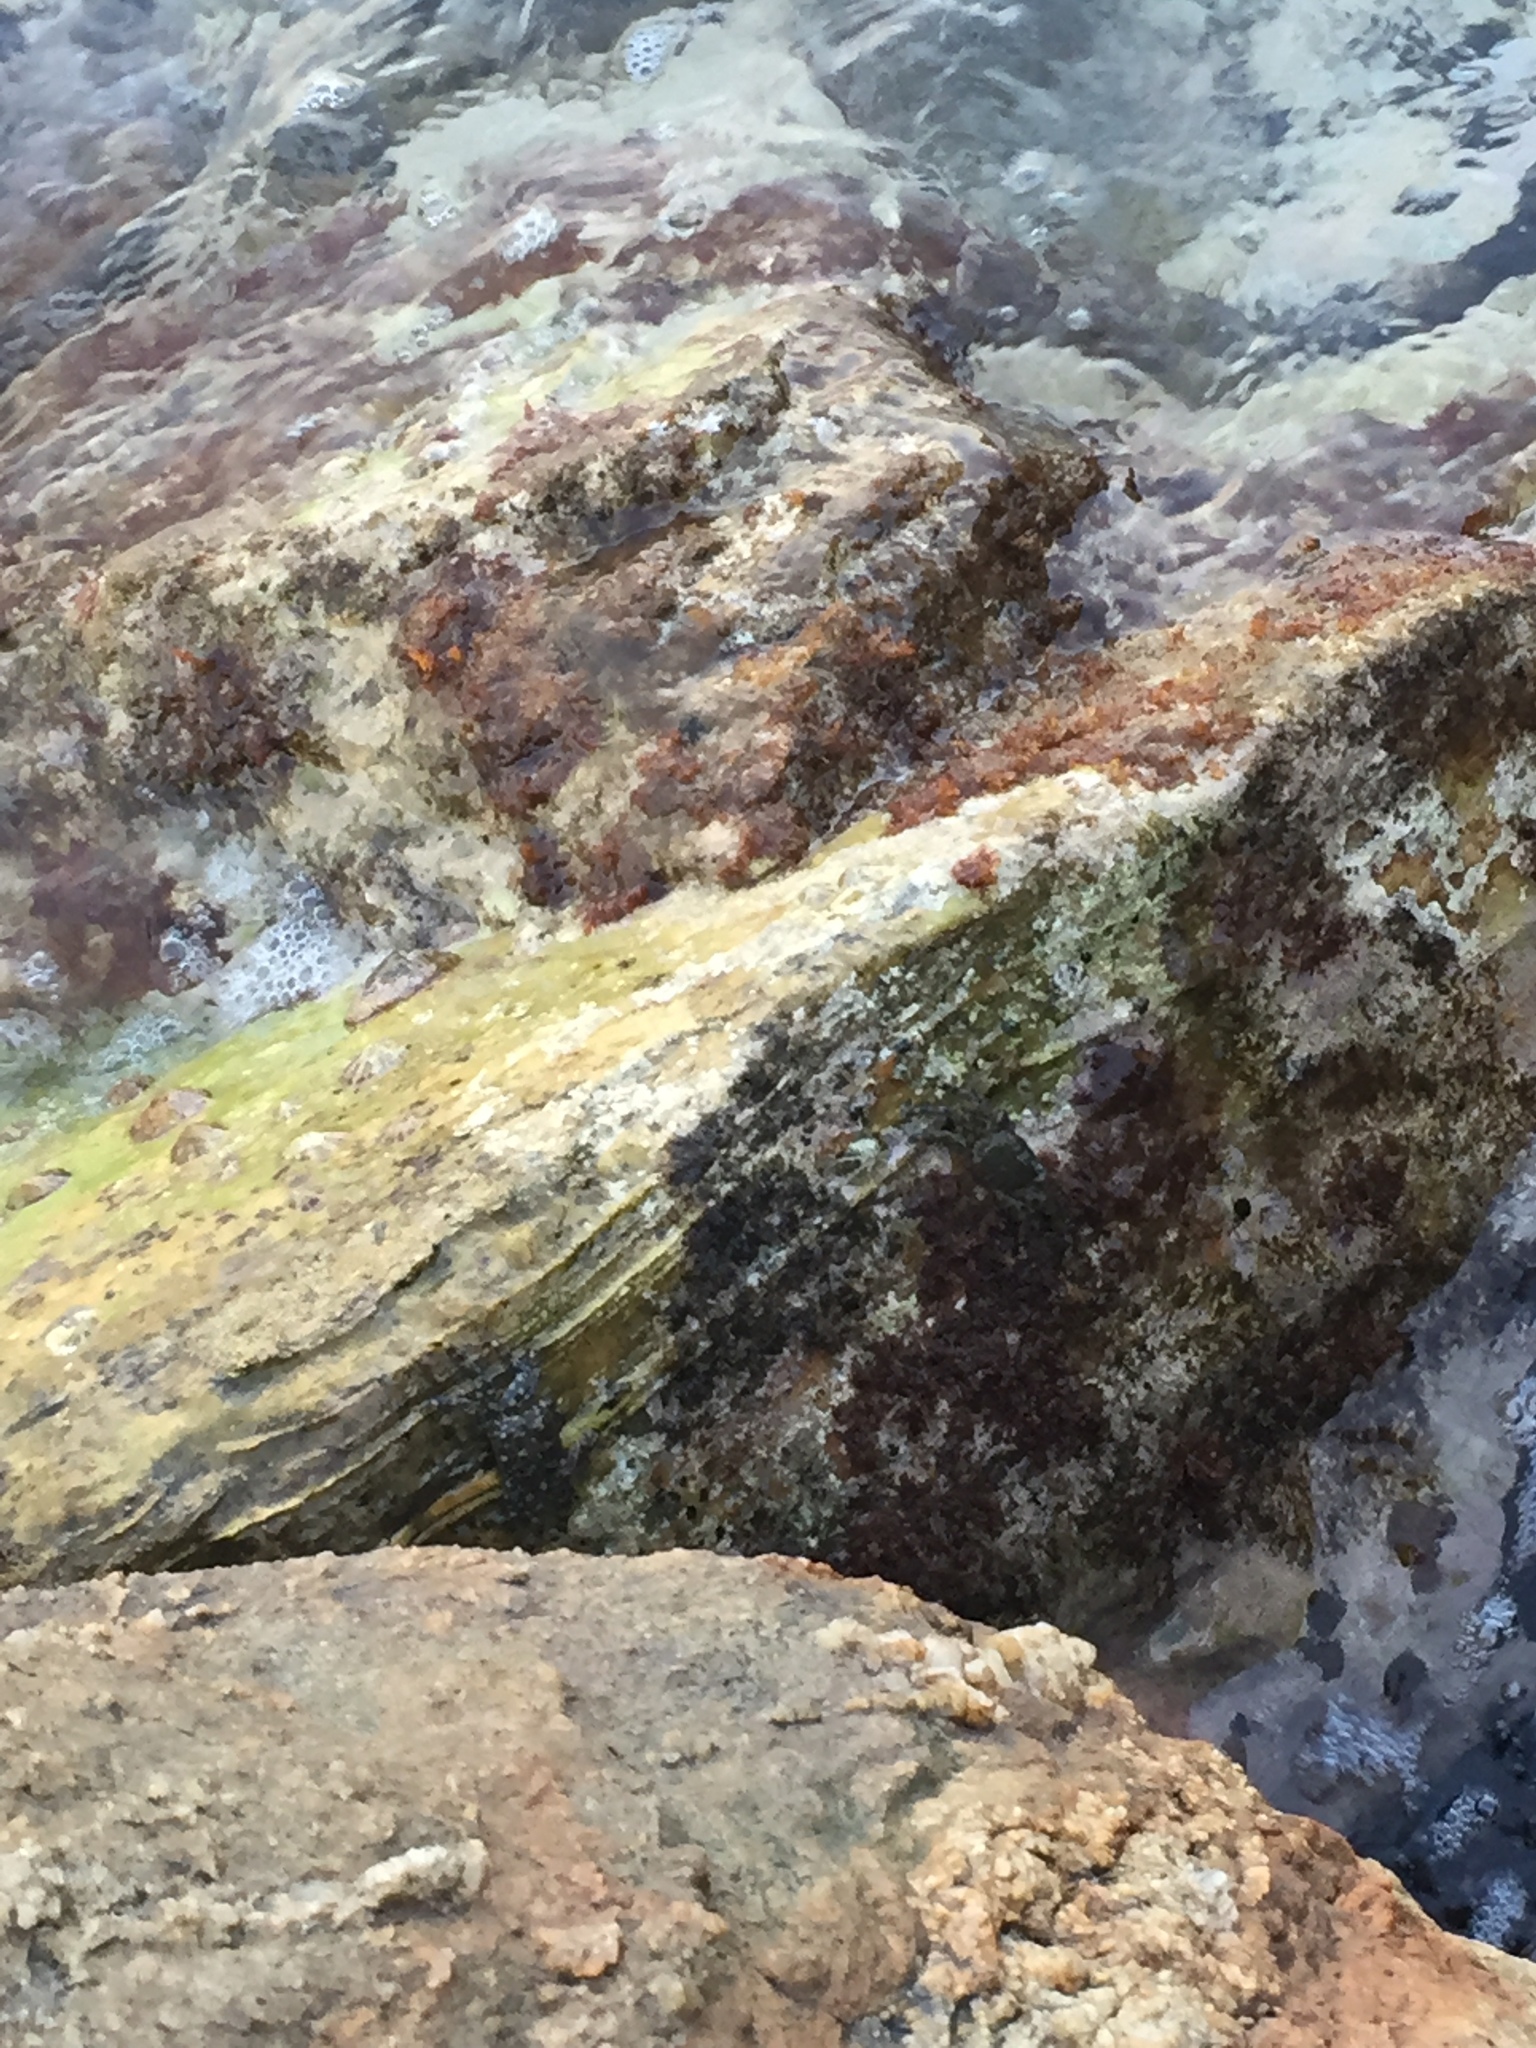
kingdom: Animalia
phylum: Arthropoda
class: Malacostraca
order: Decapoda
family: Grapsidae
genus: Pachygrapsus
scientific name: Pachygrapsus marmoratus
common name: Marbled rock crab
